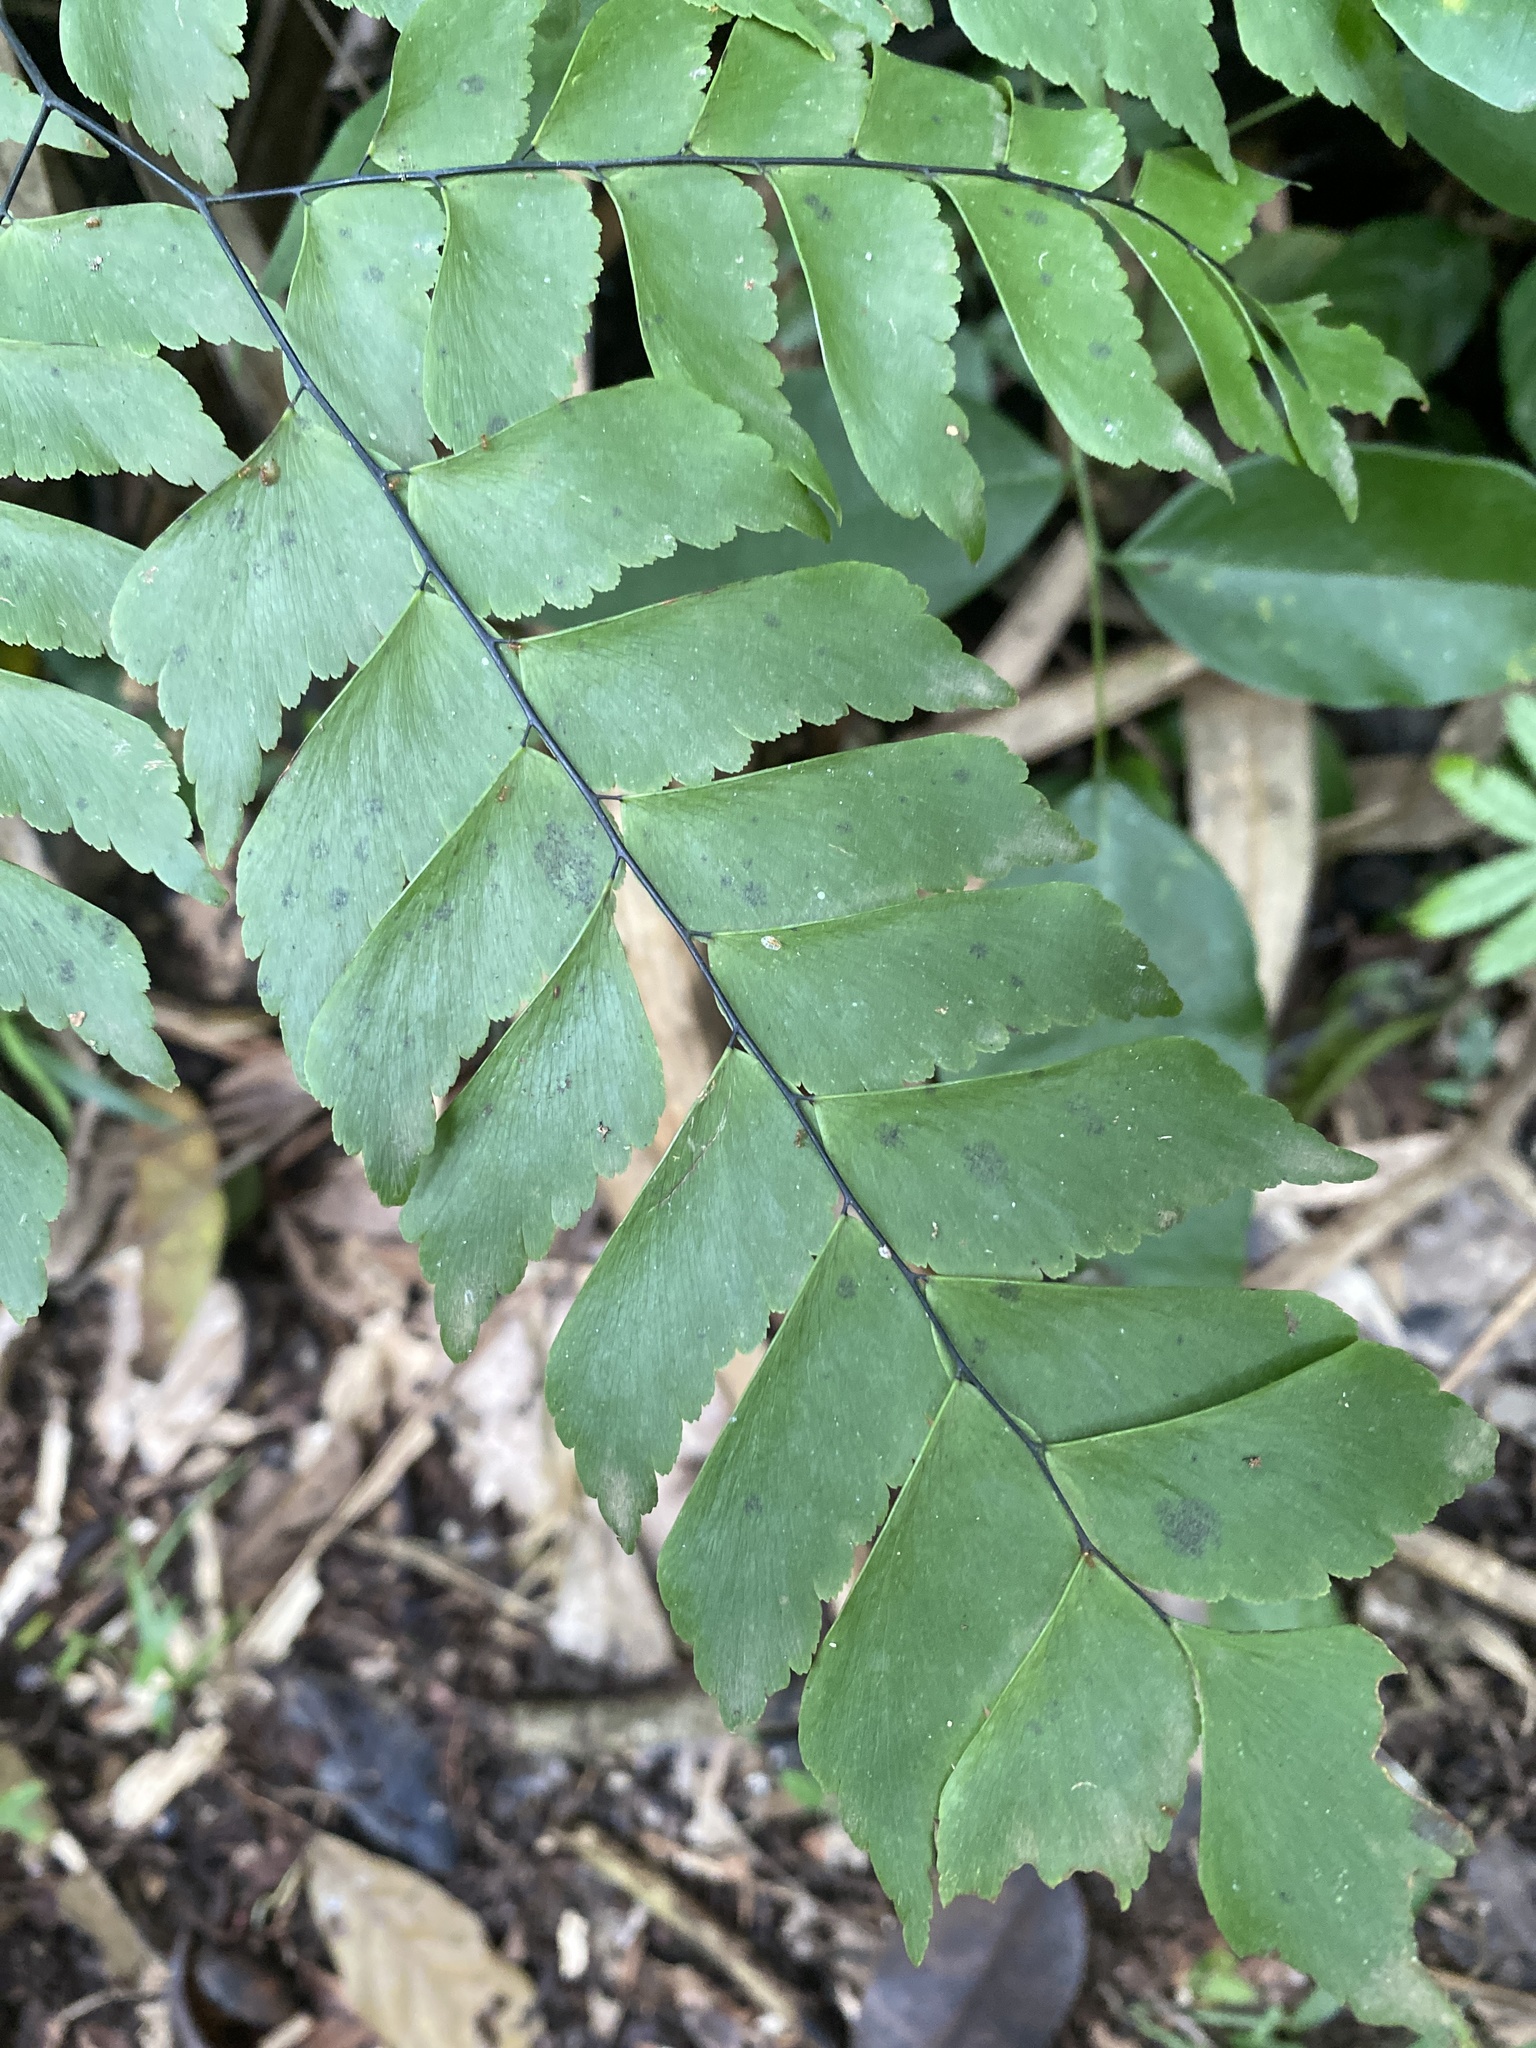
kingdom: Plantae
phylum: Tracheophyta
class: Polypodiopsida
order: Polypodiales
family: Pteridaceae
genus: Adiantum
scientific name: Adiantum trapeziforme
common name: Diamond maidenhair
